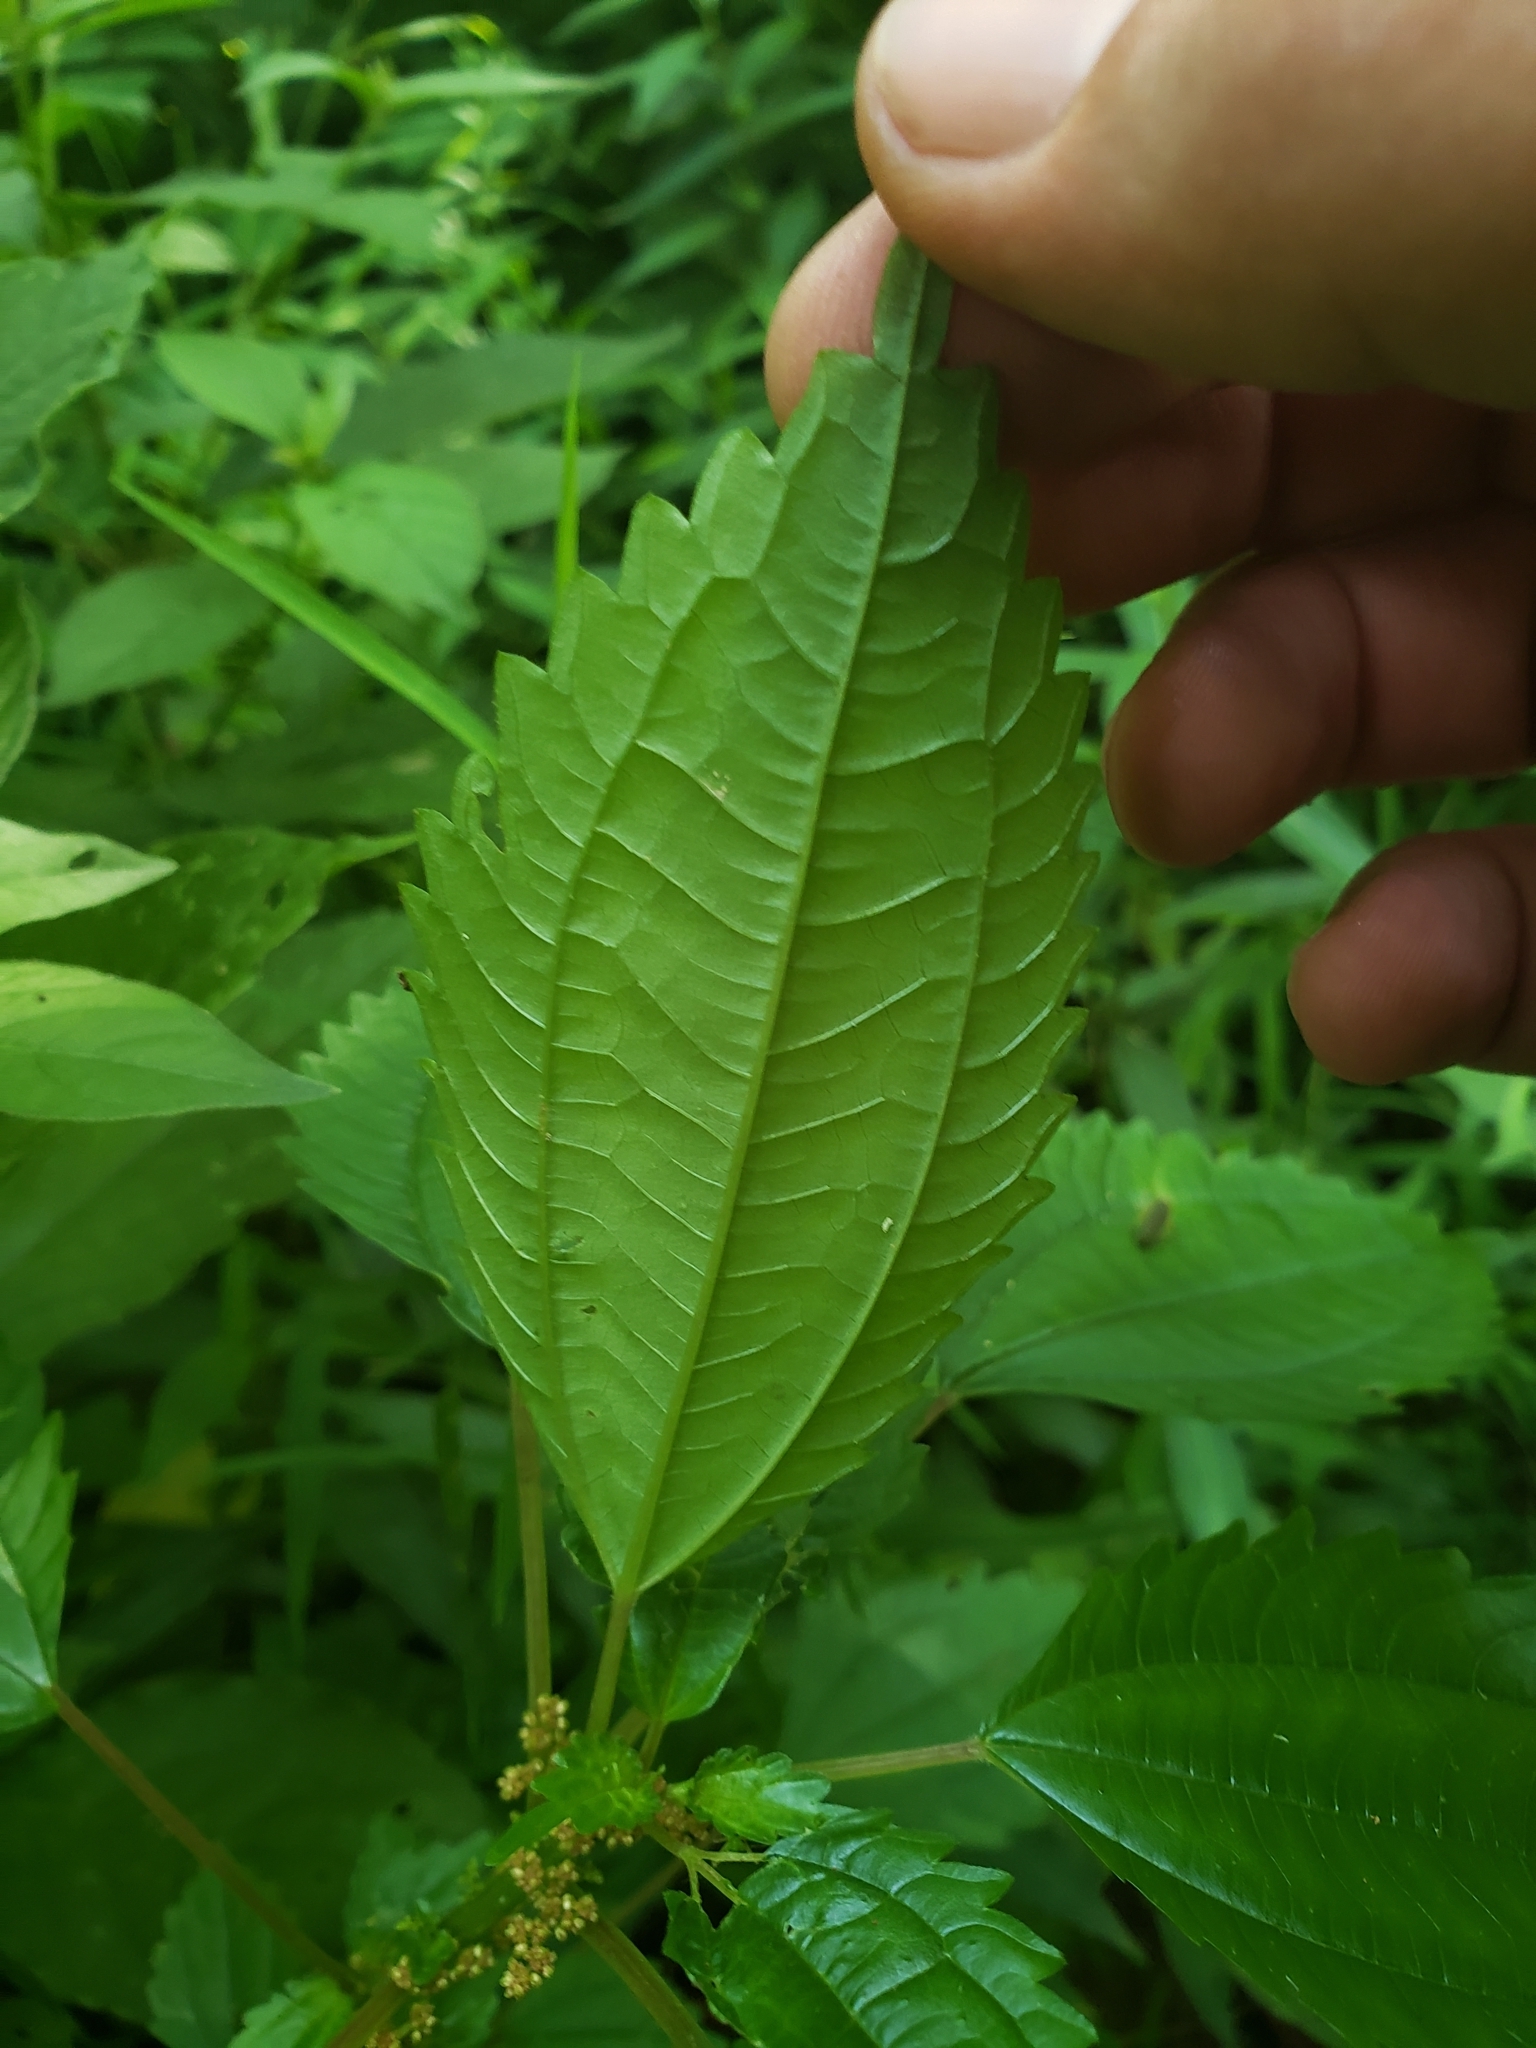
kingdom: Plantae
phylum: Tracheophyta
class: Magnoliopsida
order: Rosales
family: Urticaceae
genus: Pilea
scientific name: Pilea pumila
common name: Clearweed
